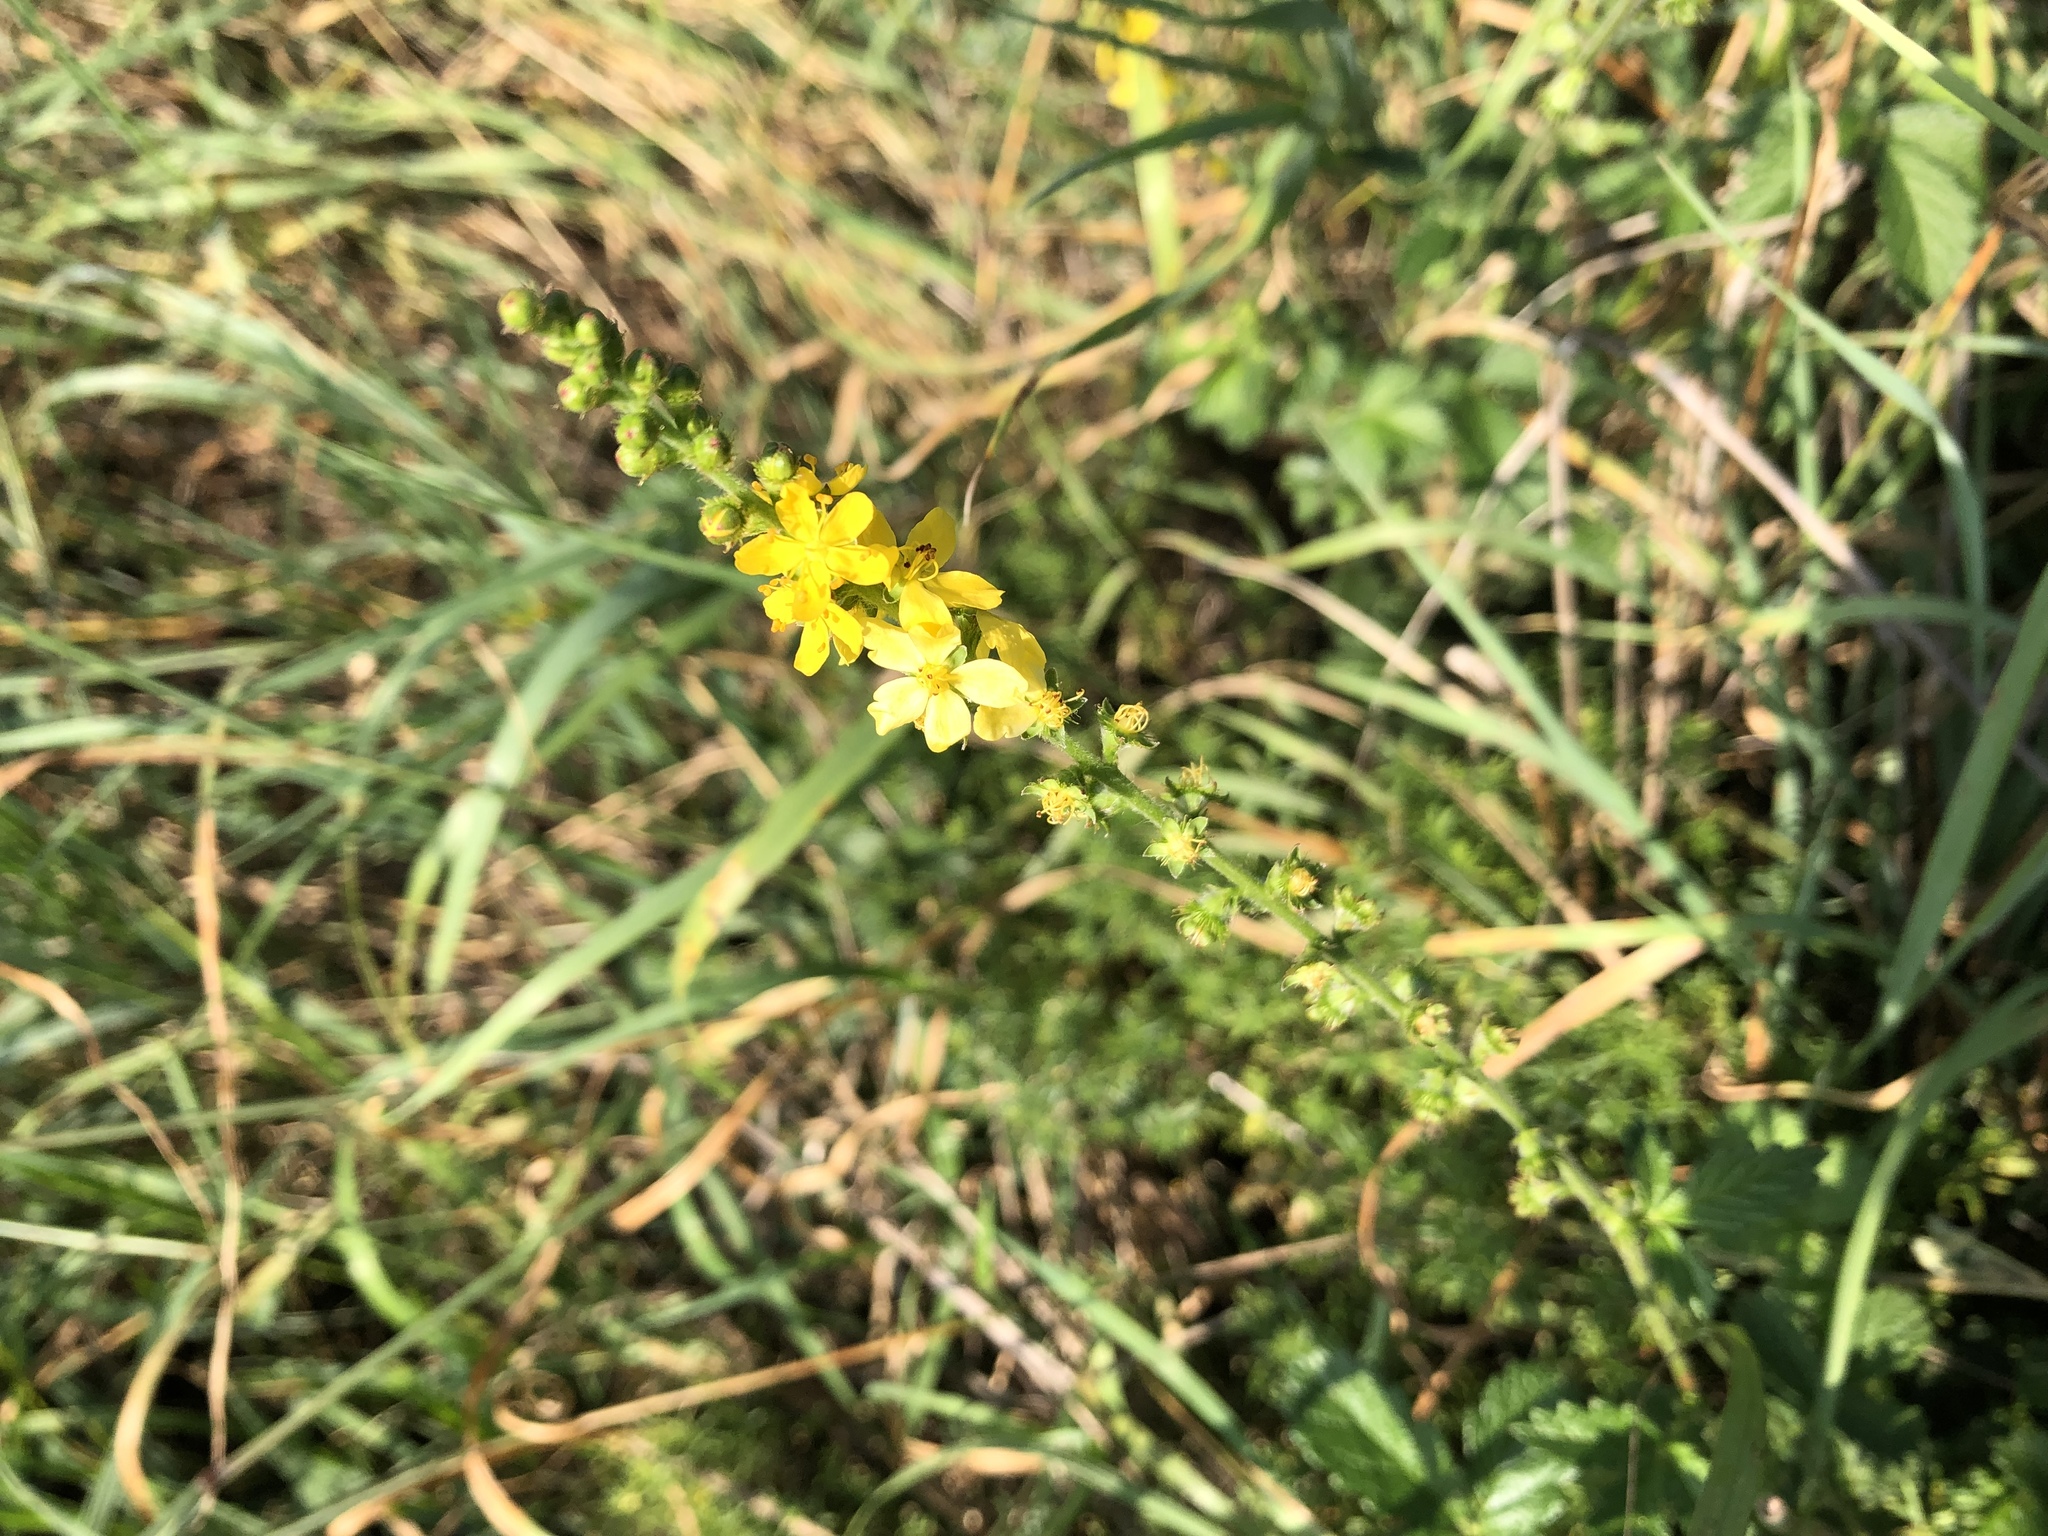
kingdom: Plantae
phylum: Tracheophyta
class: Magnoliopsida
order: Rosales
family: Rosaceae
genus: Agrimonia
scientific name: Agrimonia eupatoria
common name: Agrimony
